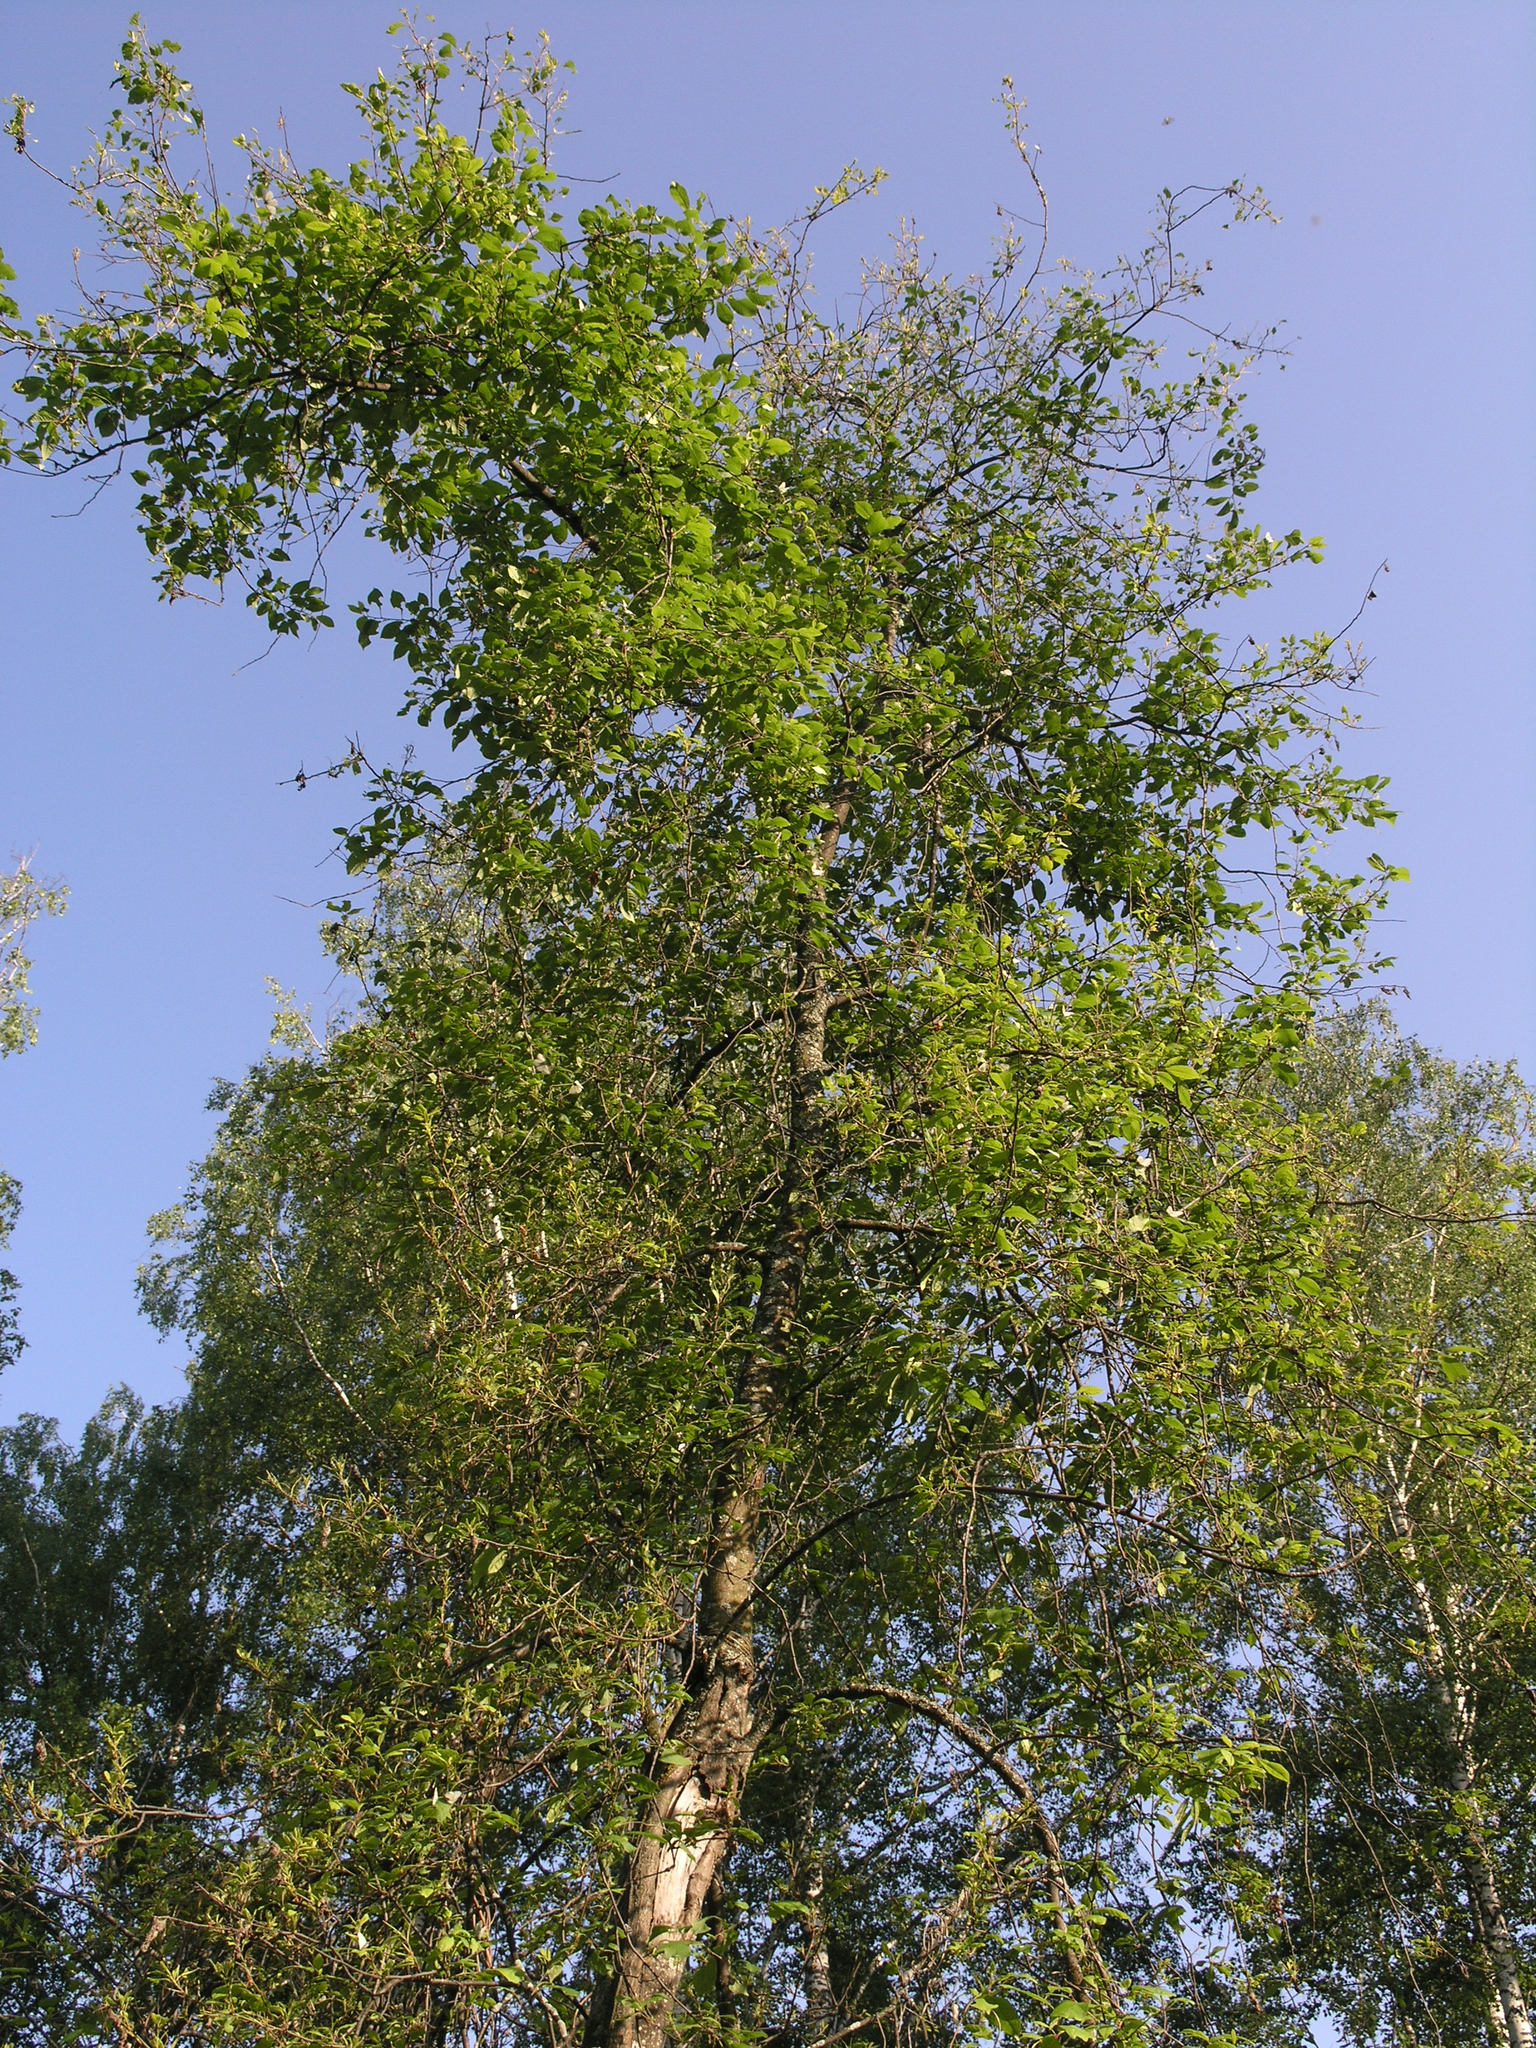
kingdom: Plantae
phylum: Tracheophyta
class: Magnoliopsida
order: Rosales
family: Rosaceae
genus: Prunus
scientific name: Prunus padus
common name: Bird cherry
